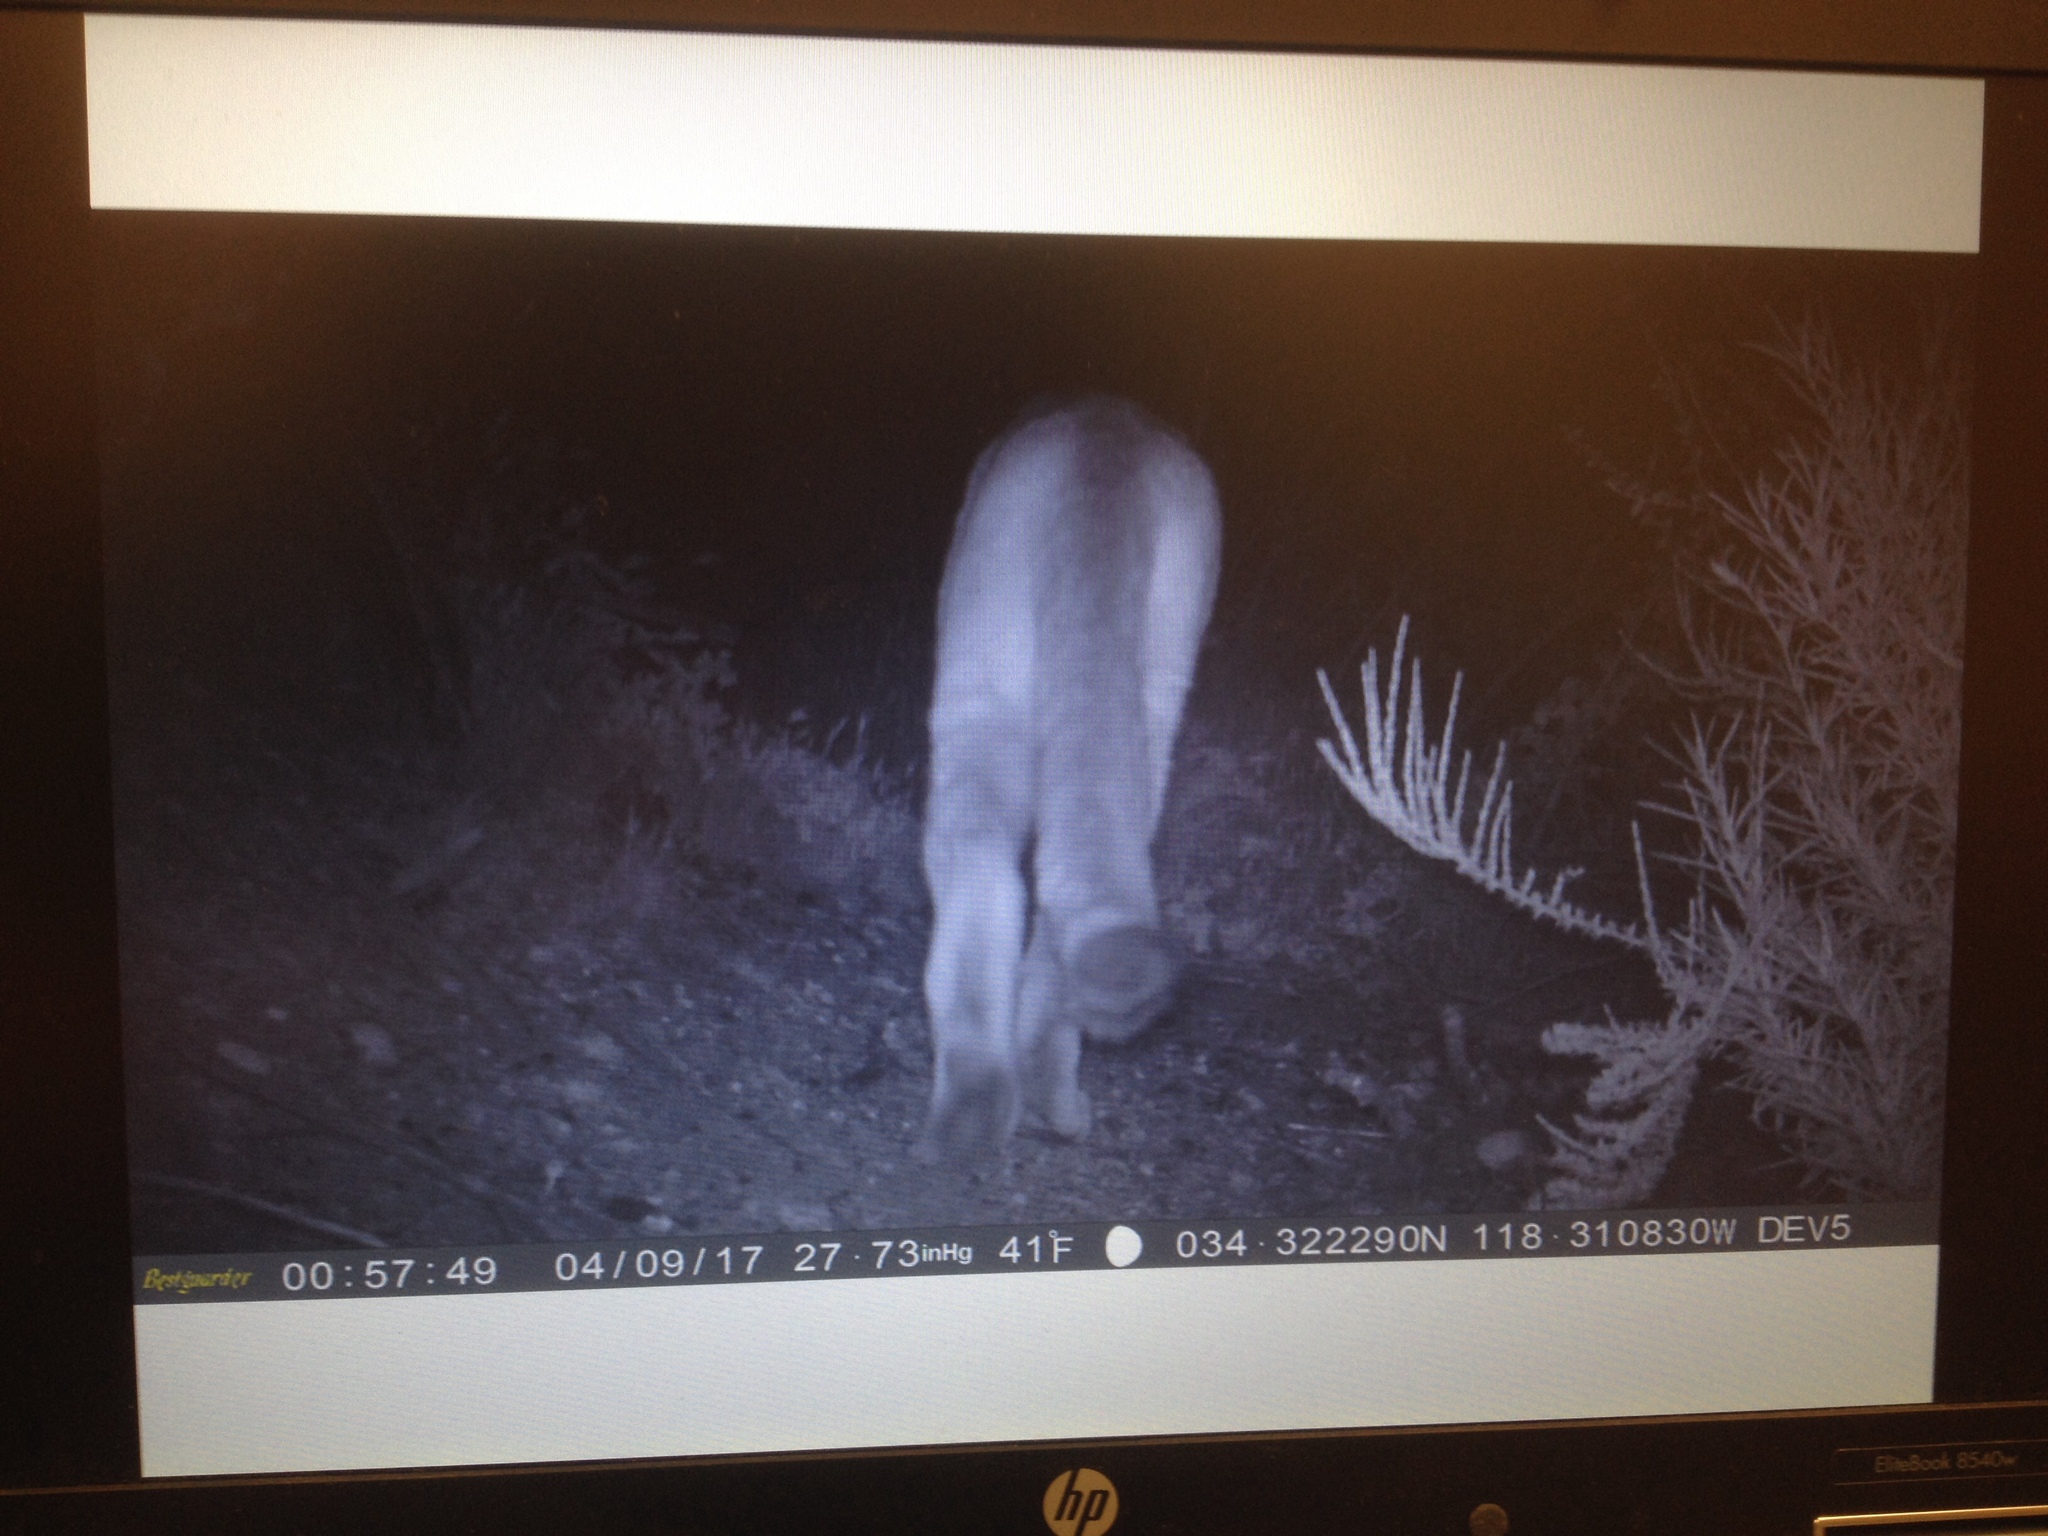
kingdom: Animalia
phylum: Chordata
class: Mammalia
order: Carnivora
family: Felidae
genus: Puma
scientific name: Puma concolor
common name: Puma
